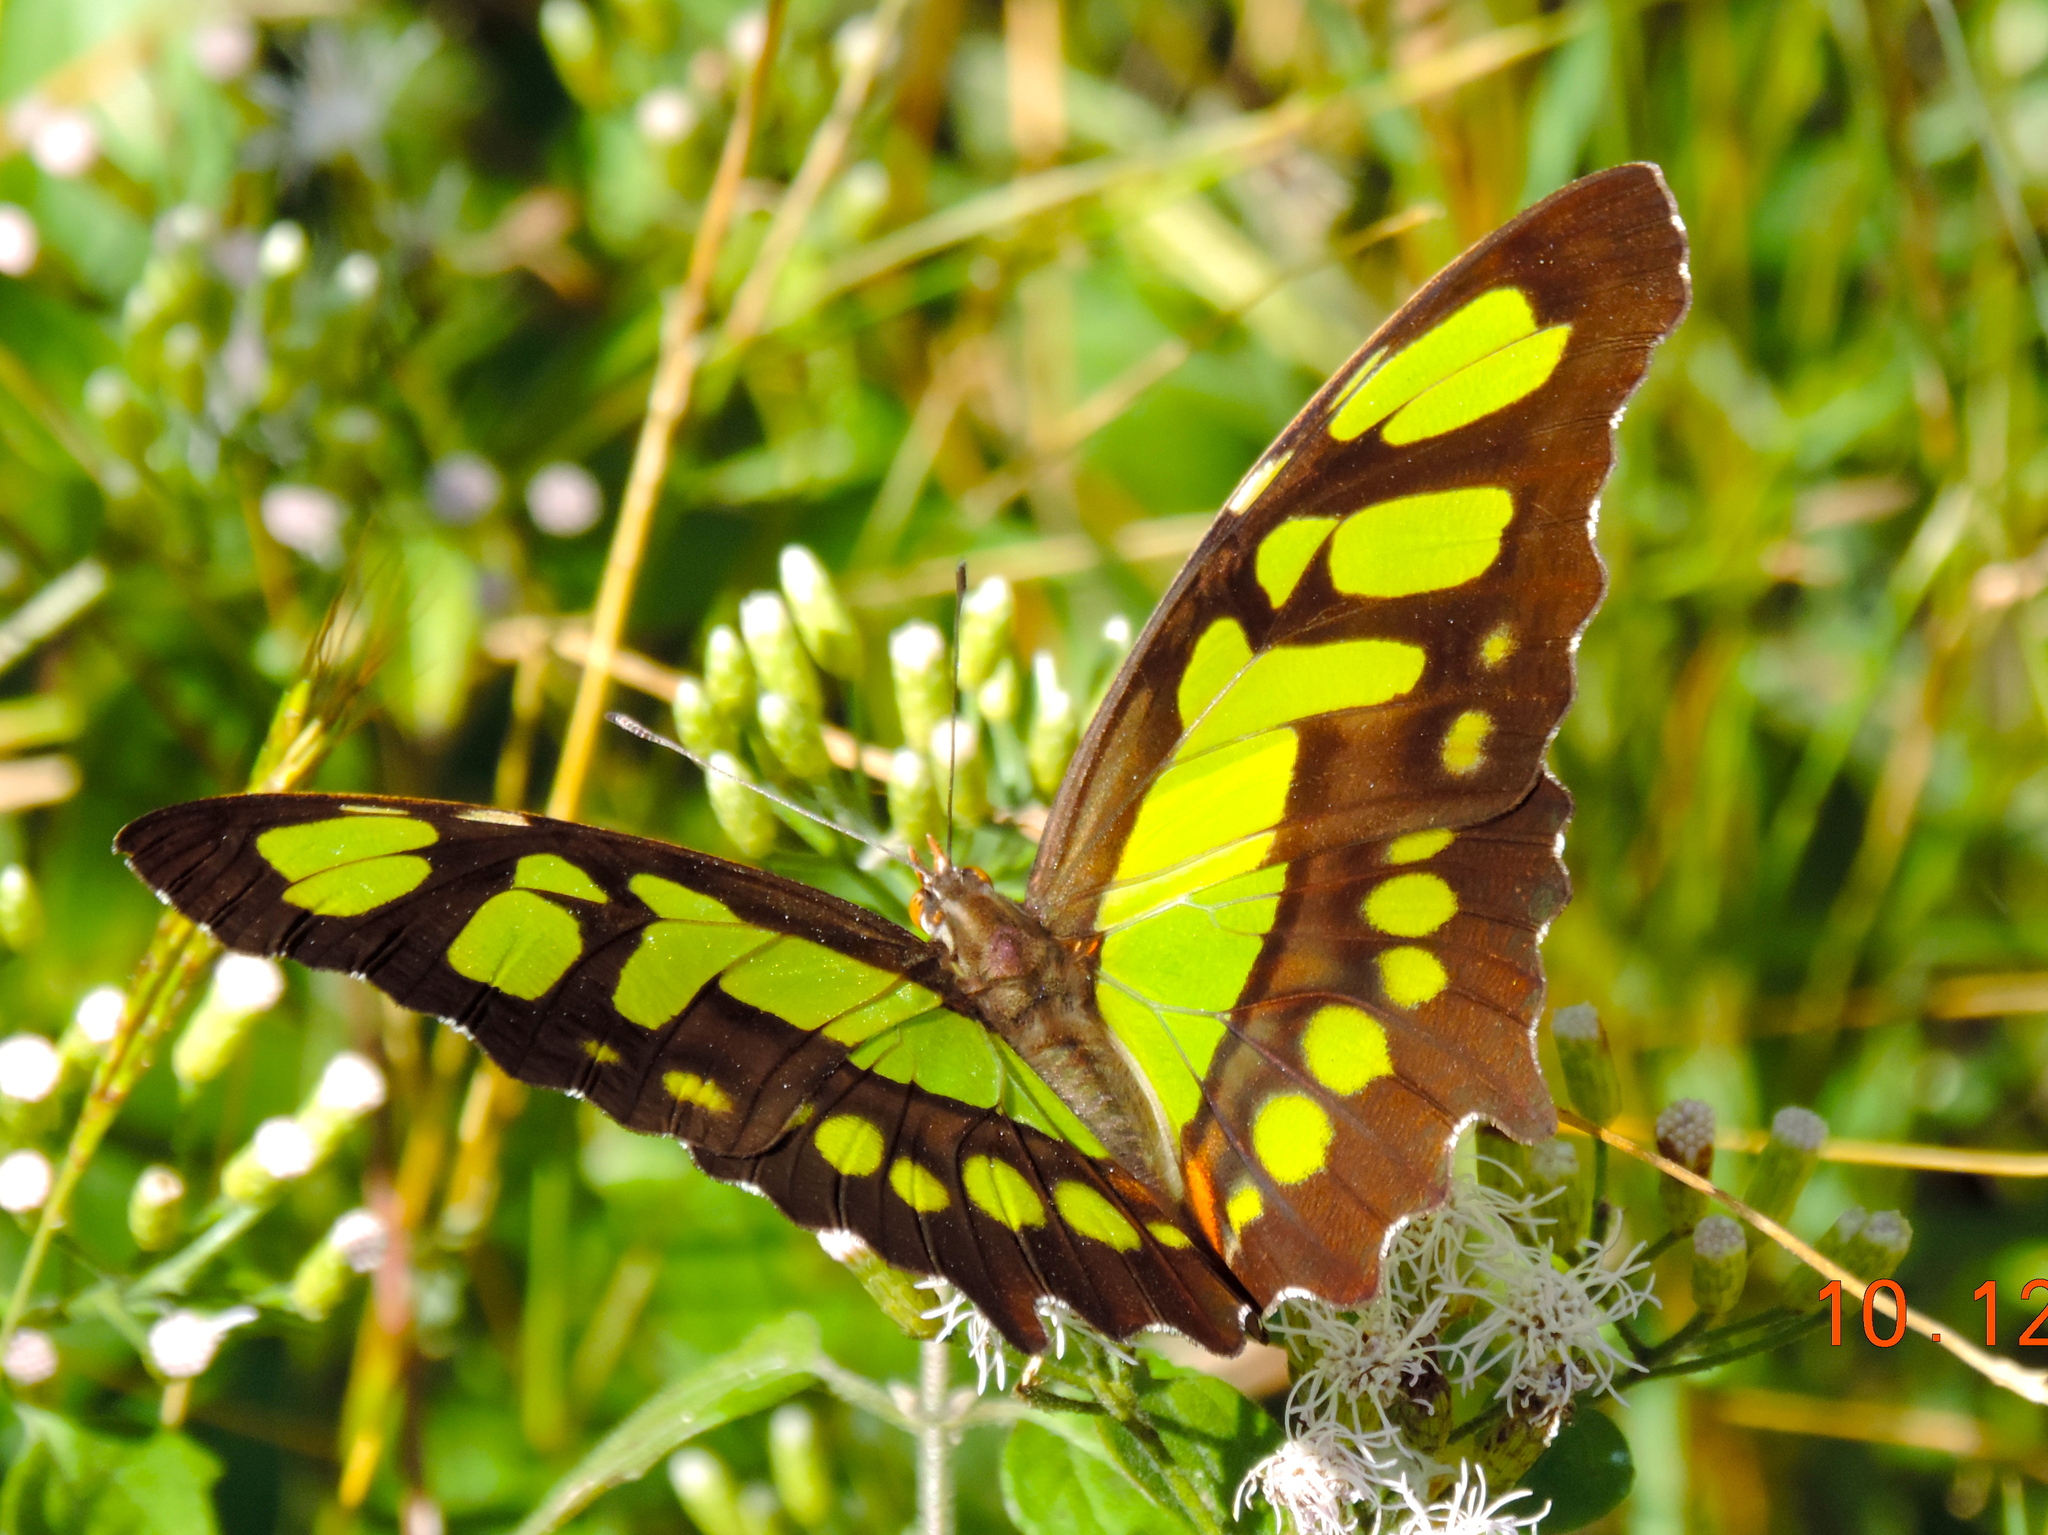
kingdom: Animalia
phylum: Arthropoda
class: Insecta
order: Lepidoptera
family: Nymphalidae
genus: Siproeta
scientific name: Siproeta stelenes
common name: Malachite
